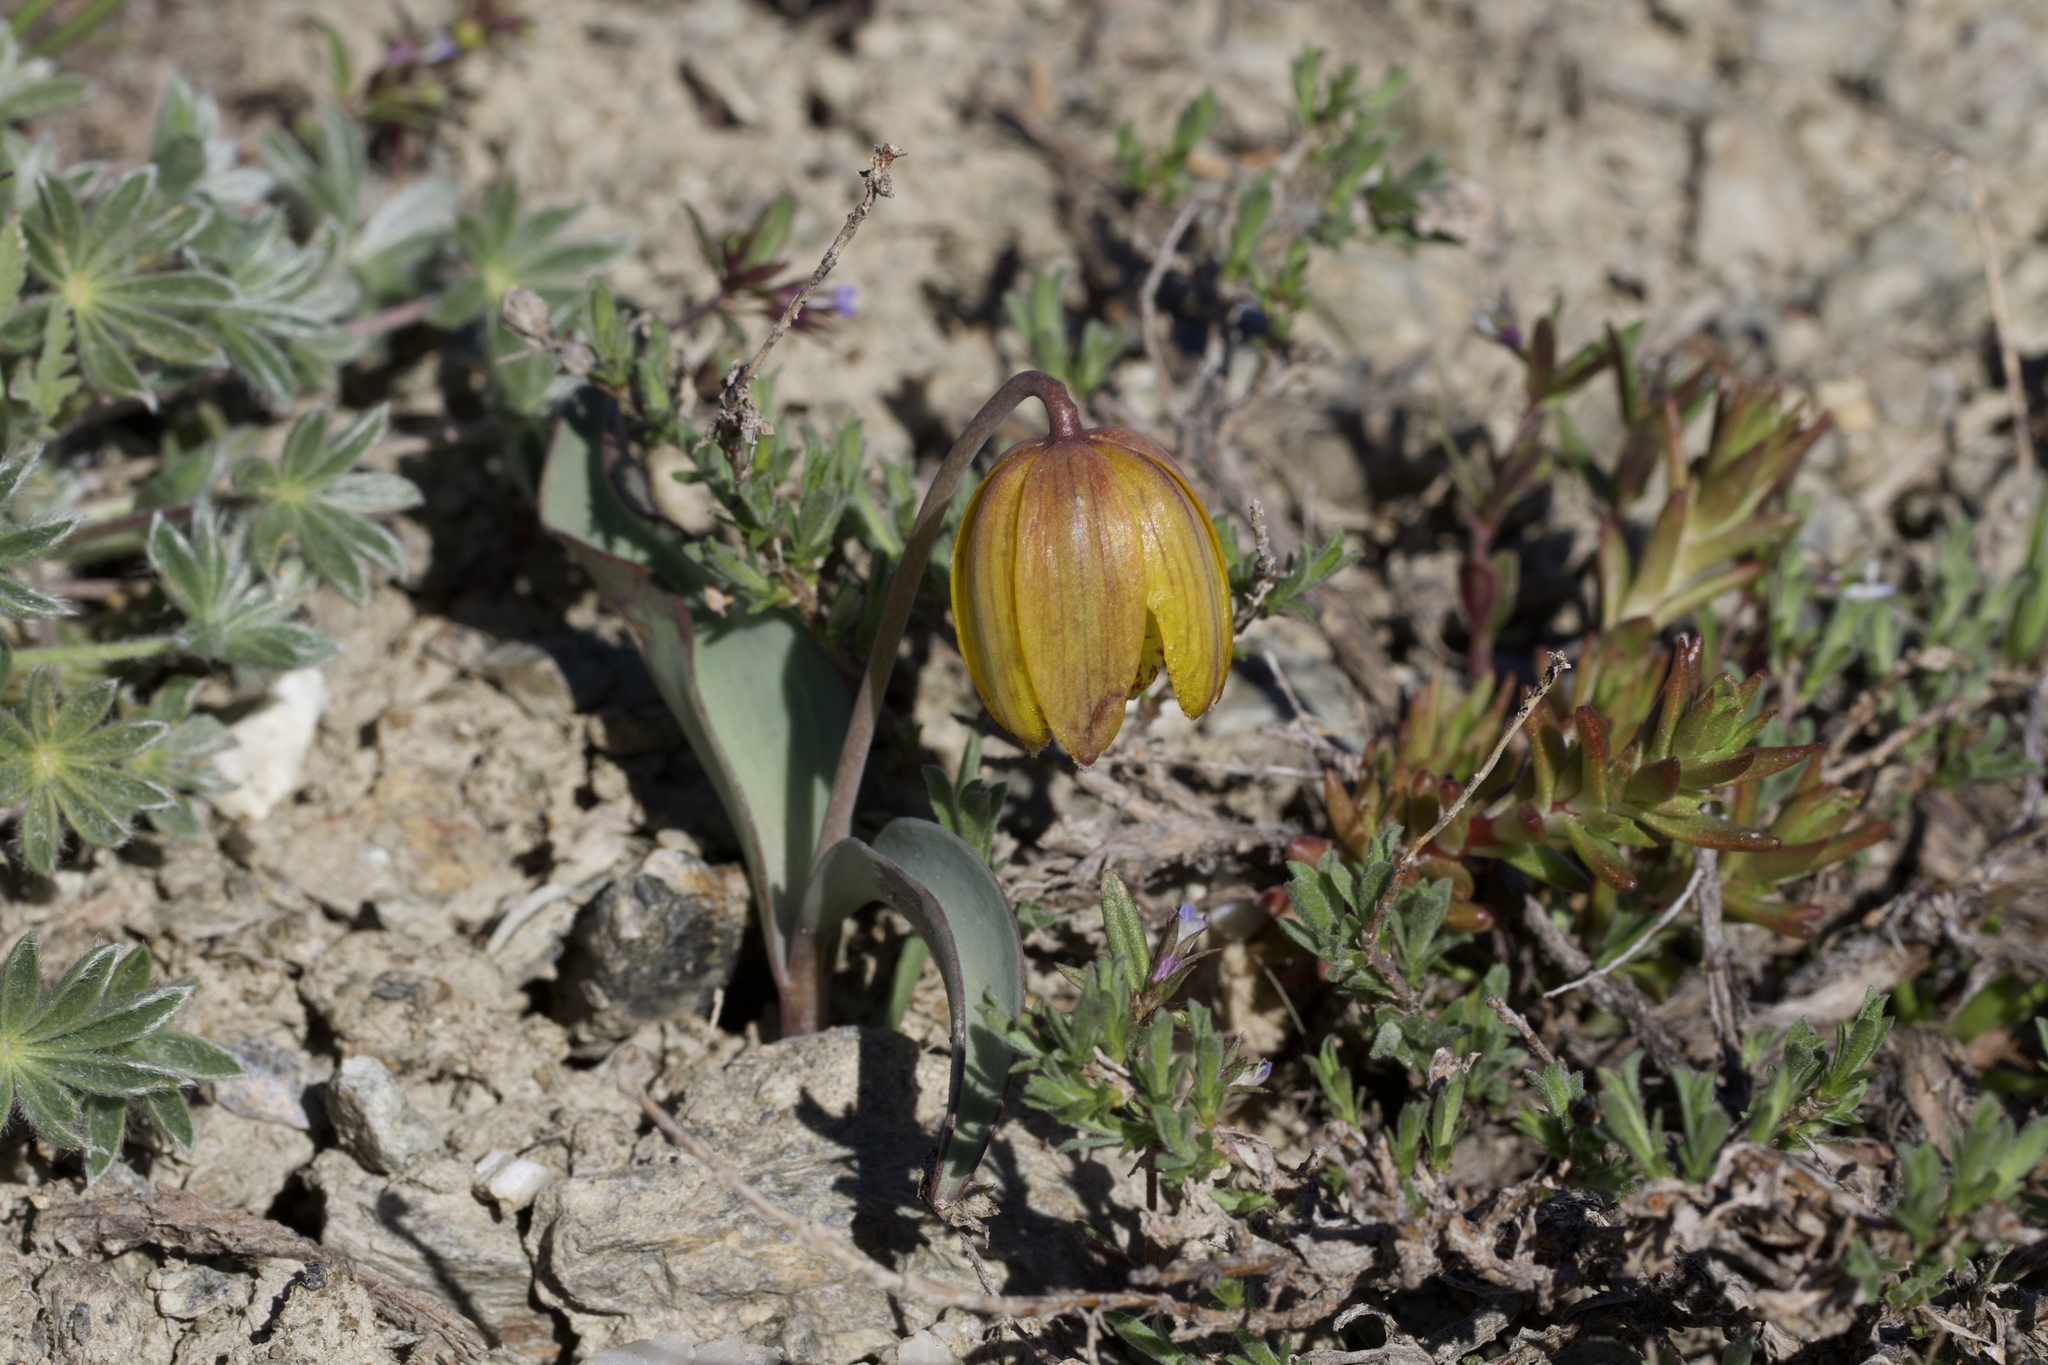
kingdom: Plantae
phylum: Tracheophyta
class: Liliopsida
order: Liliales
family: Liliaceae
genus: Fritillaria
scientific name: Fritillaria glauca
